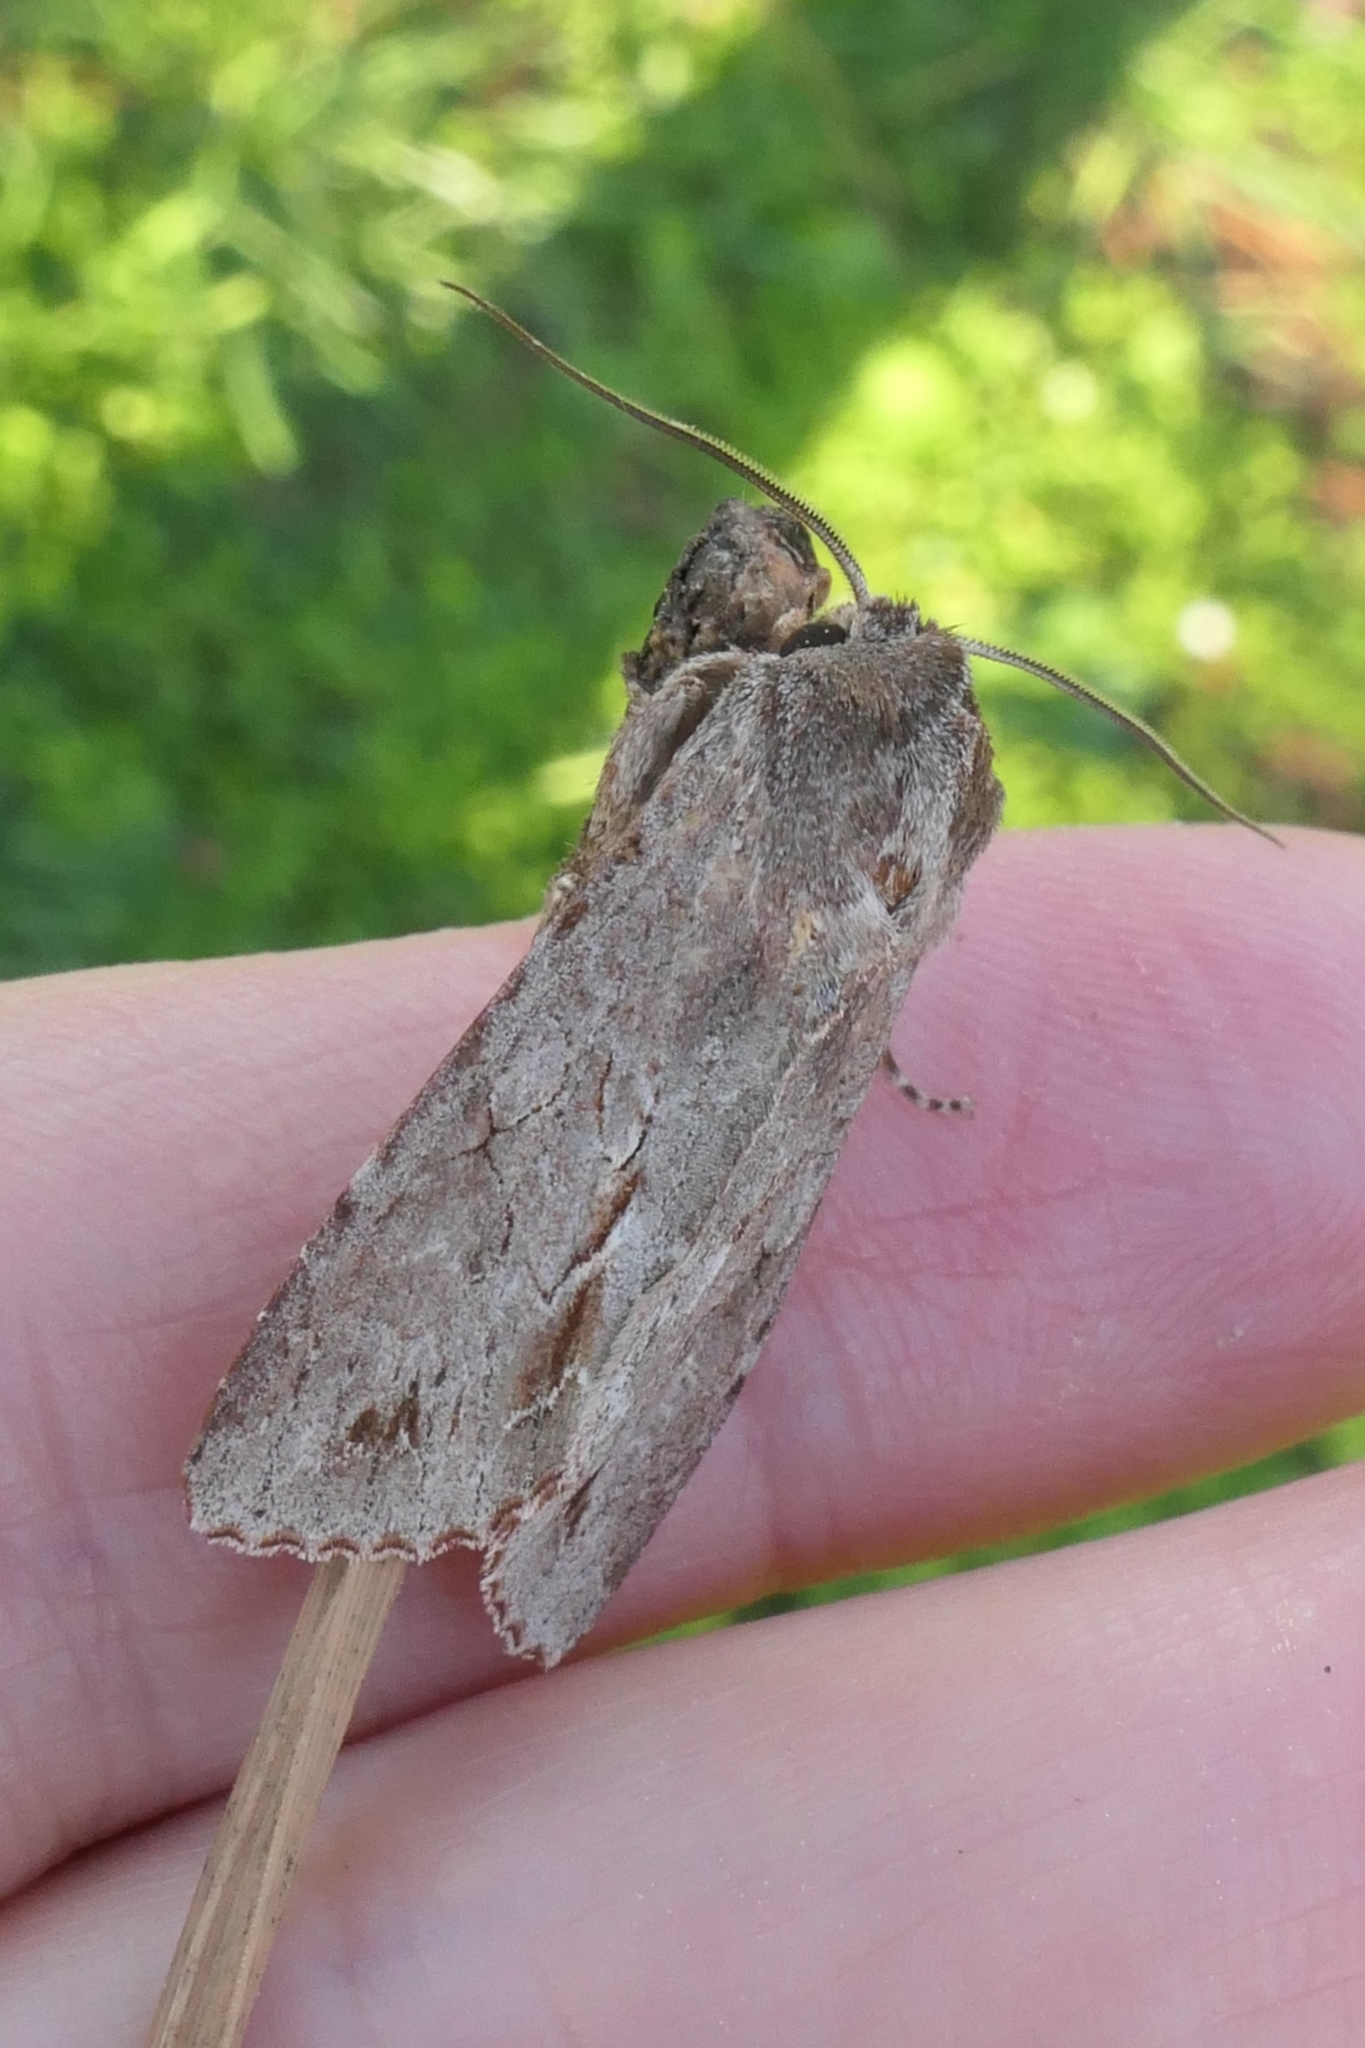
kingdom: Animalia
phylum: Arthropoda
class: Insecta
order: Lepidoptera
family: Noctuidae
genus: Ichneutica
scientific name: Ichneutica
